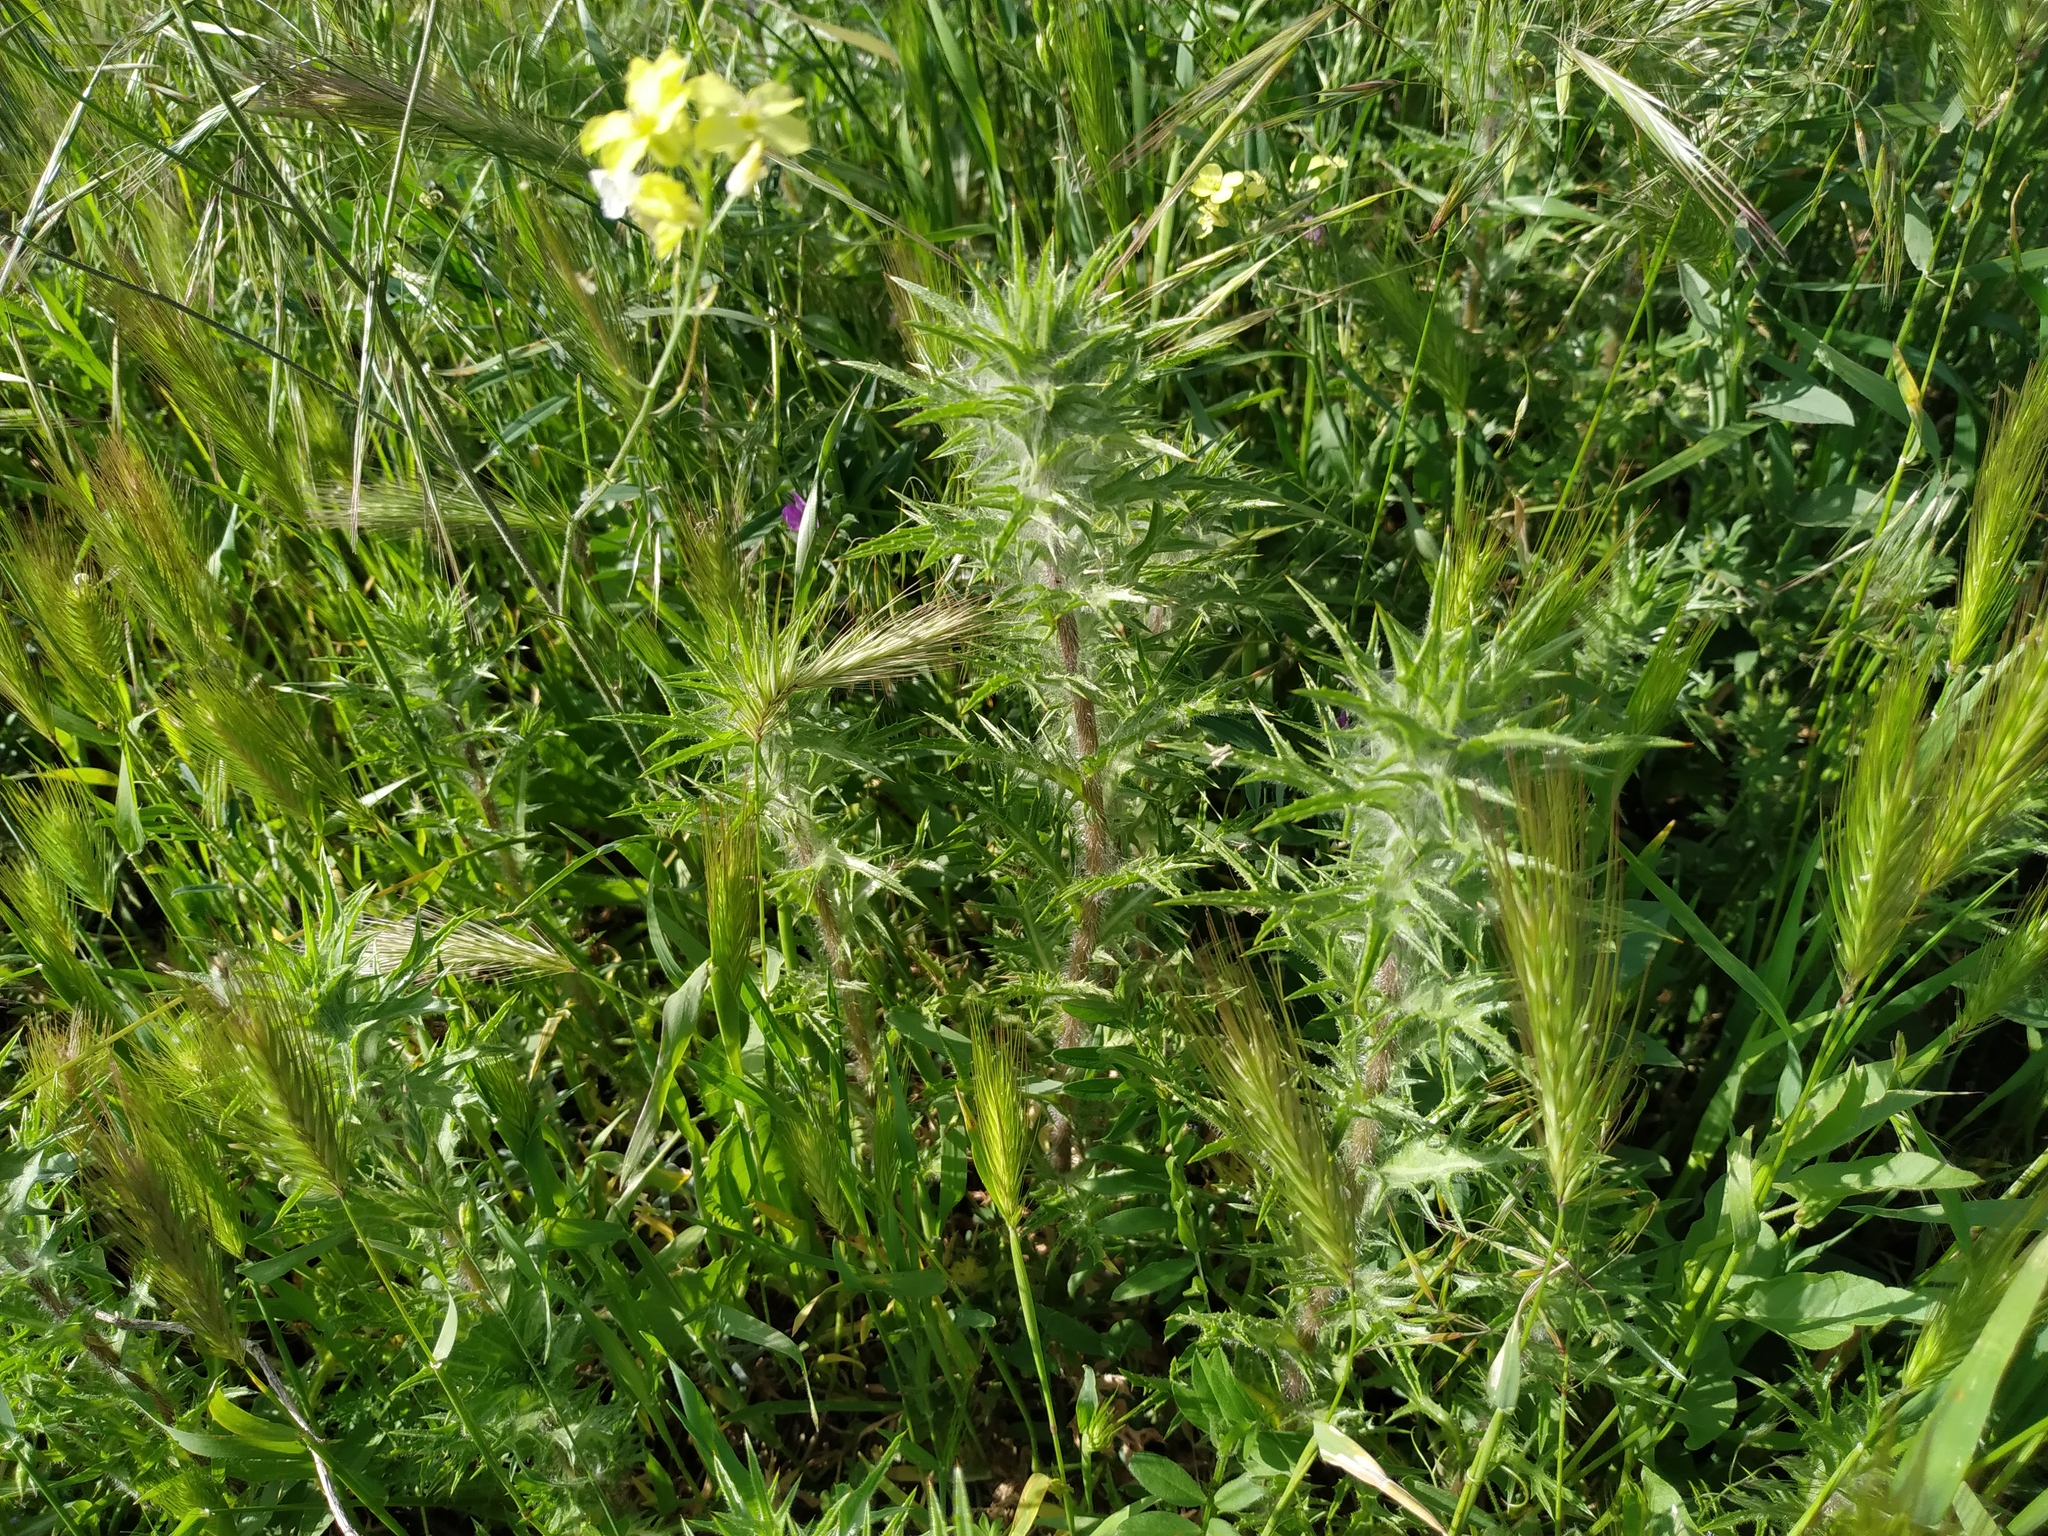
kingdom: Plantae
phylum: Tracheophyta
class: Magnoliopsida
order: Asterales
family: Asteraceae
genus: Carthamus
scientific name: Carthamus lanatus
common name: Downy safflower
